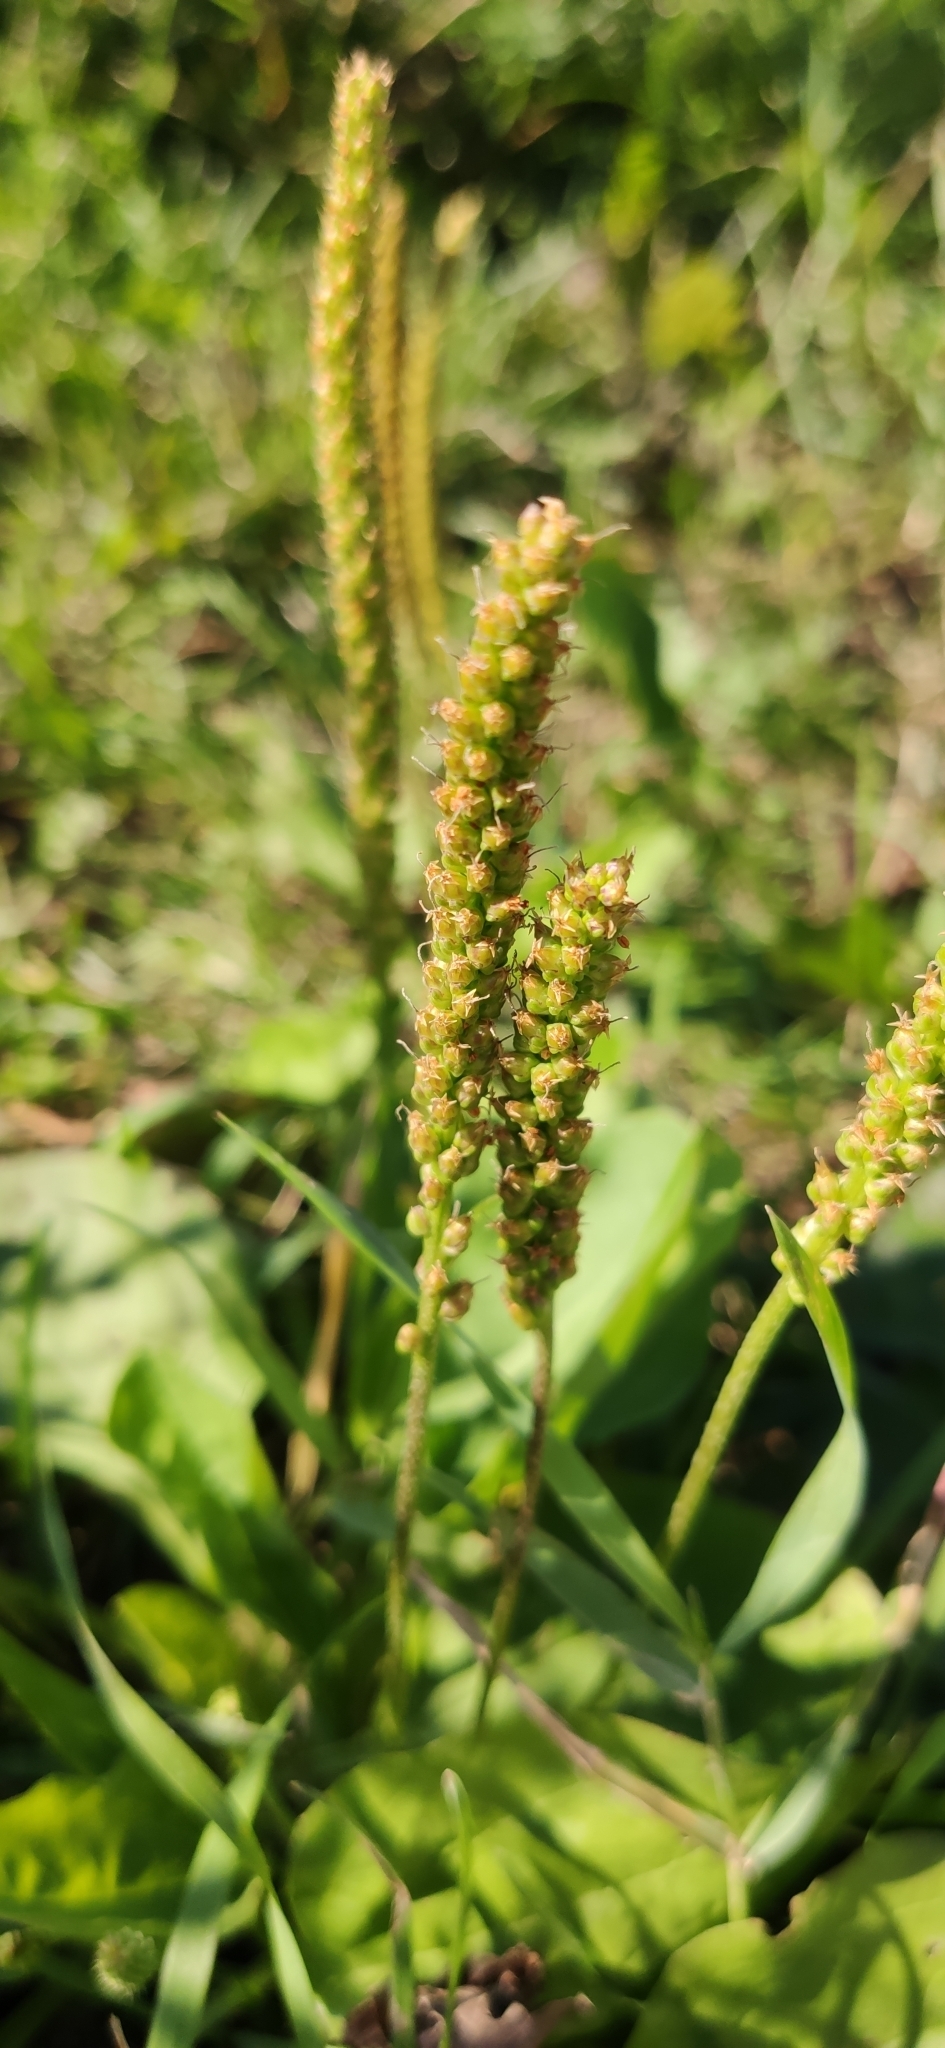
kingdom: Plantae
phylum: Tracheophyta
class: Magnoliopsida
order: Lamiales
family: Plantaginaceae
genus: Plantago
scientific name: Plantago major
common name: Common plantain
